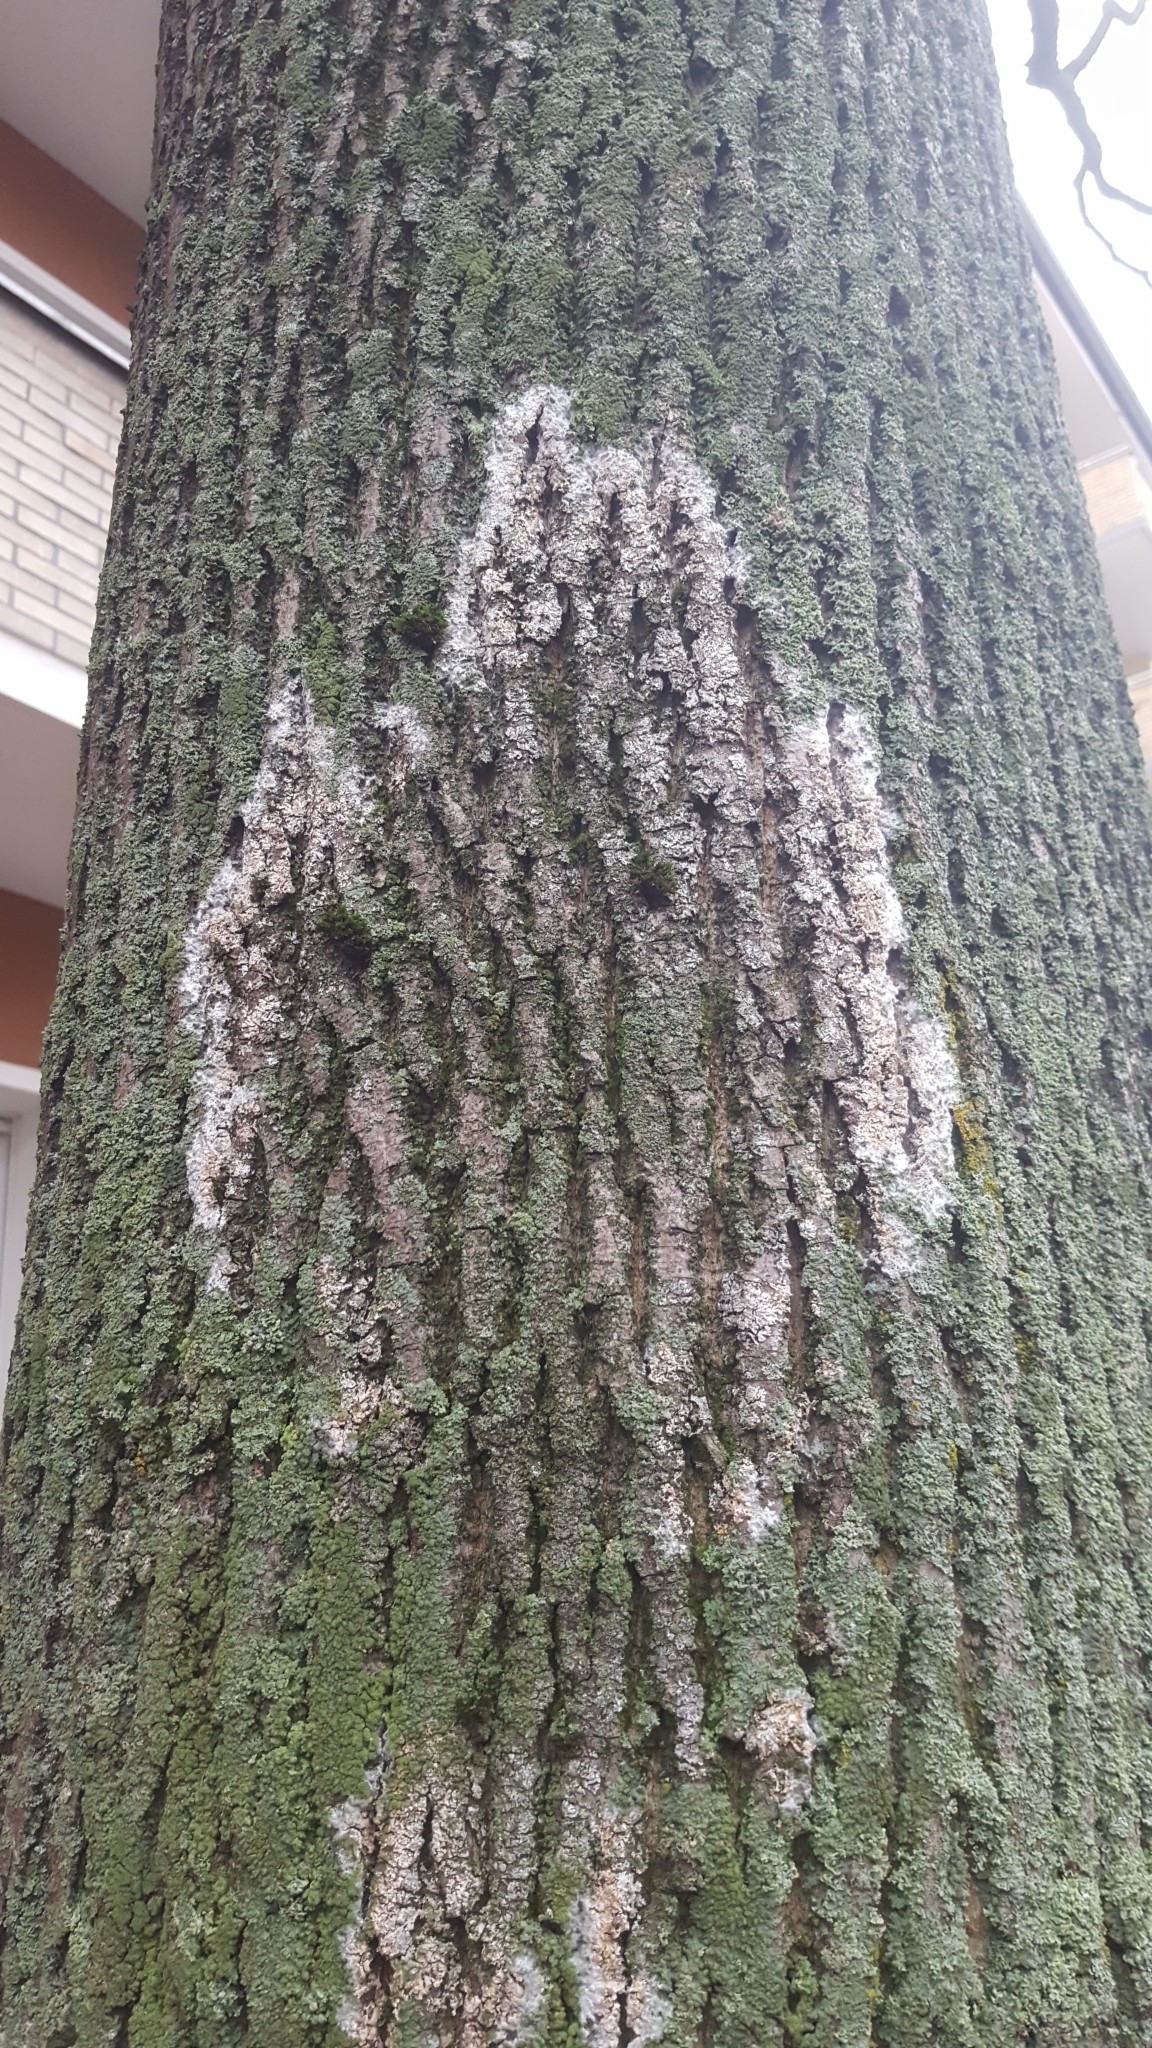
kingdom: Fungi
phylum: Basidiomycota
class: Agaricomycetes
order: Atheliales
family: Atheliaceae
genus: Athelia
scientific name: Athelia arachnoidea
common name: Candelabra duster
